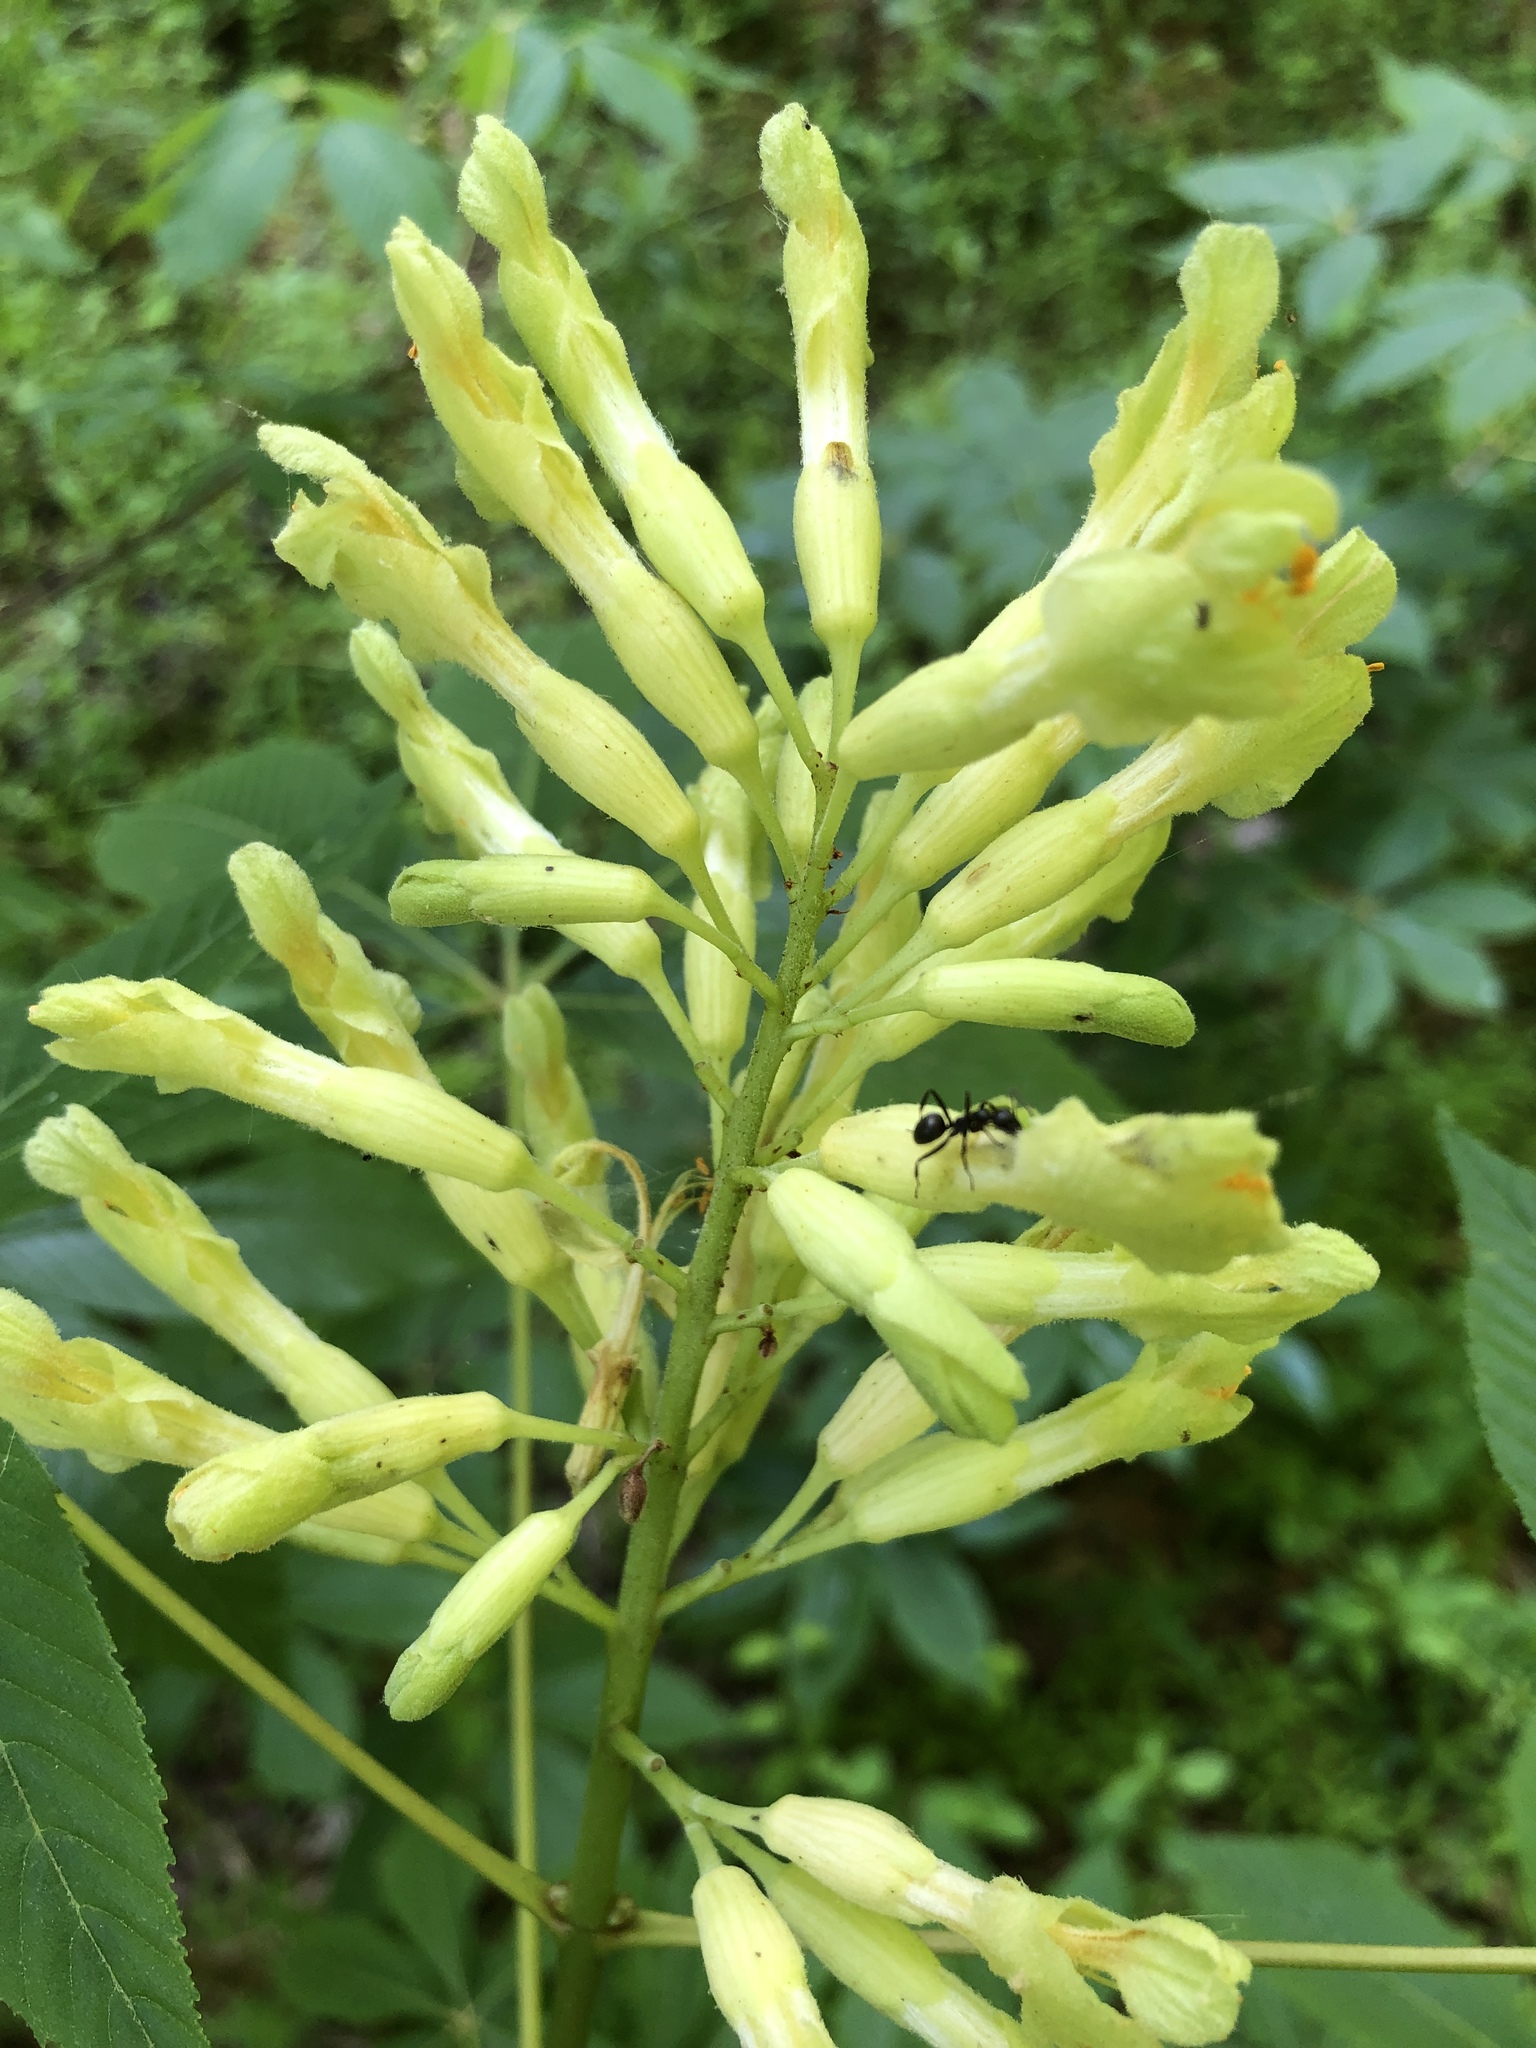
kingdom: Plantae
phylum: Tracheophyta
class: Magnoliopsida
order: Sapindales
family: Sapindaceae
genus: Aesculus
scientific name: Aesculus sylvatica
